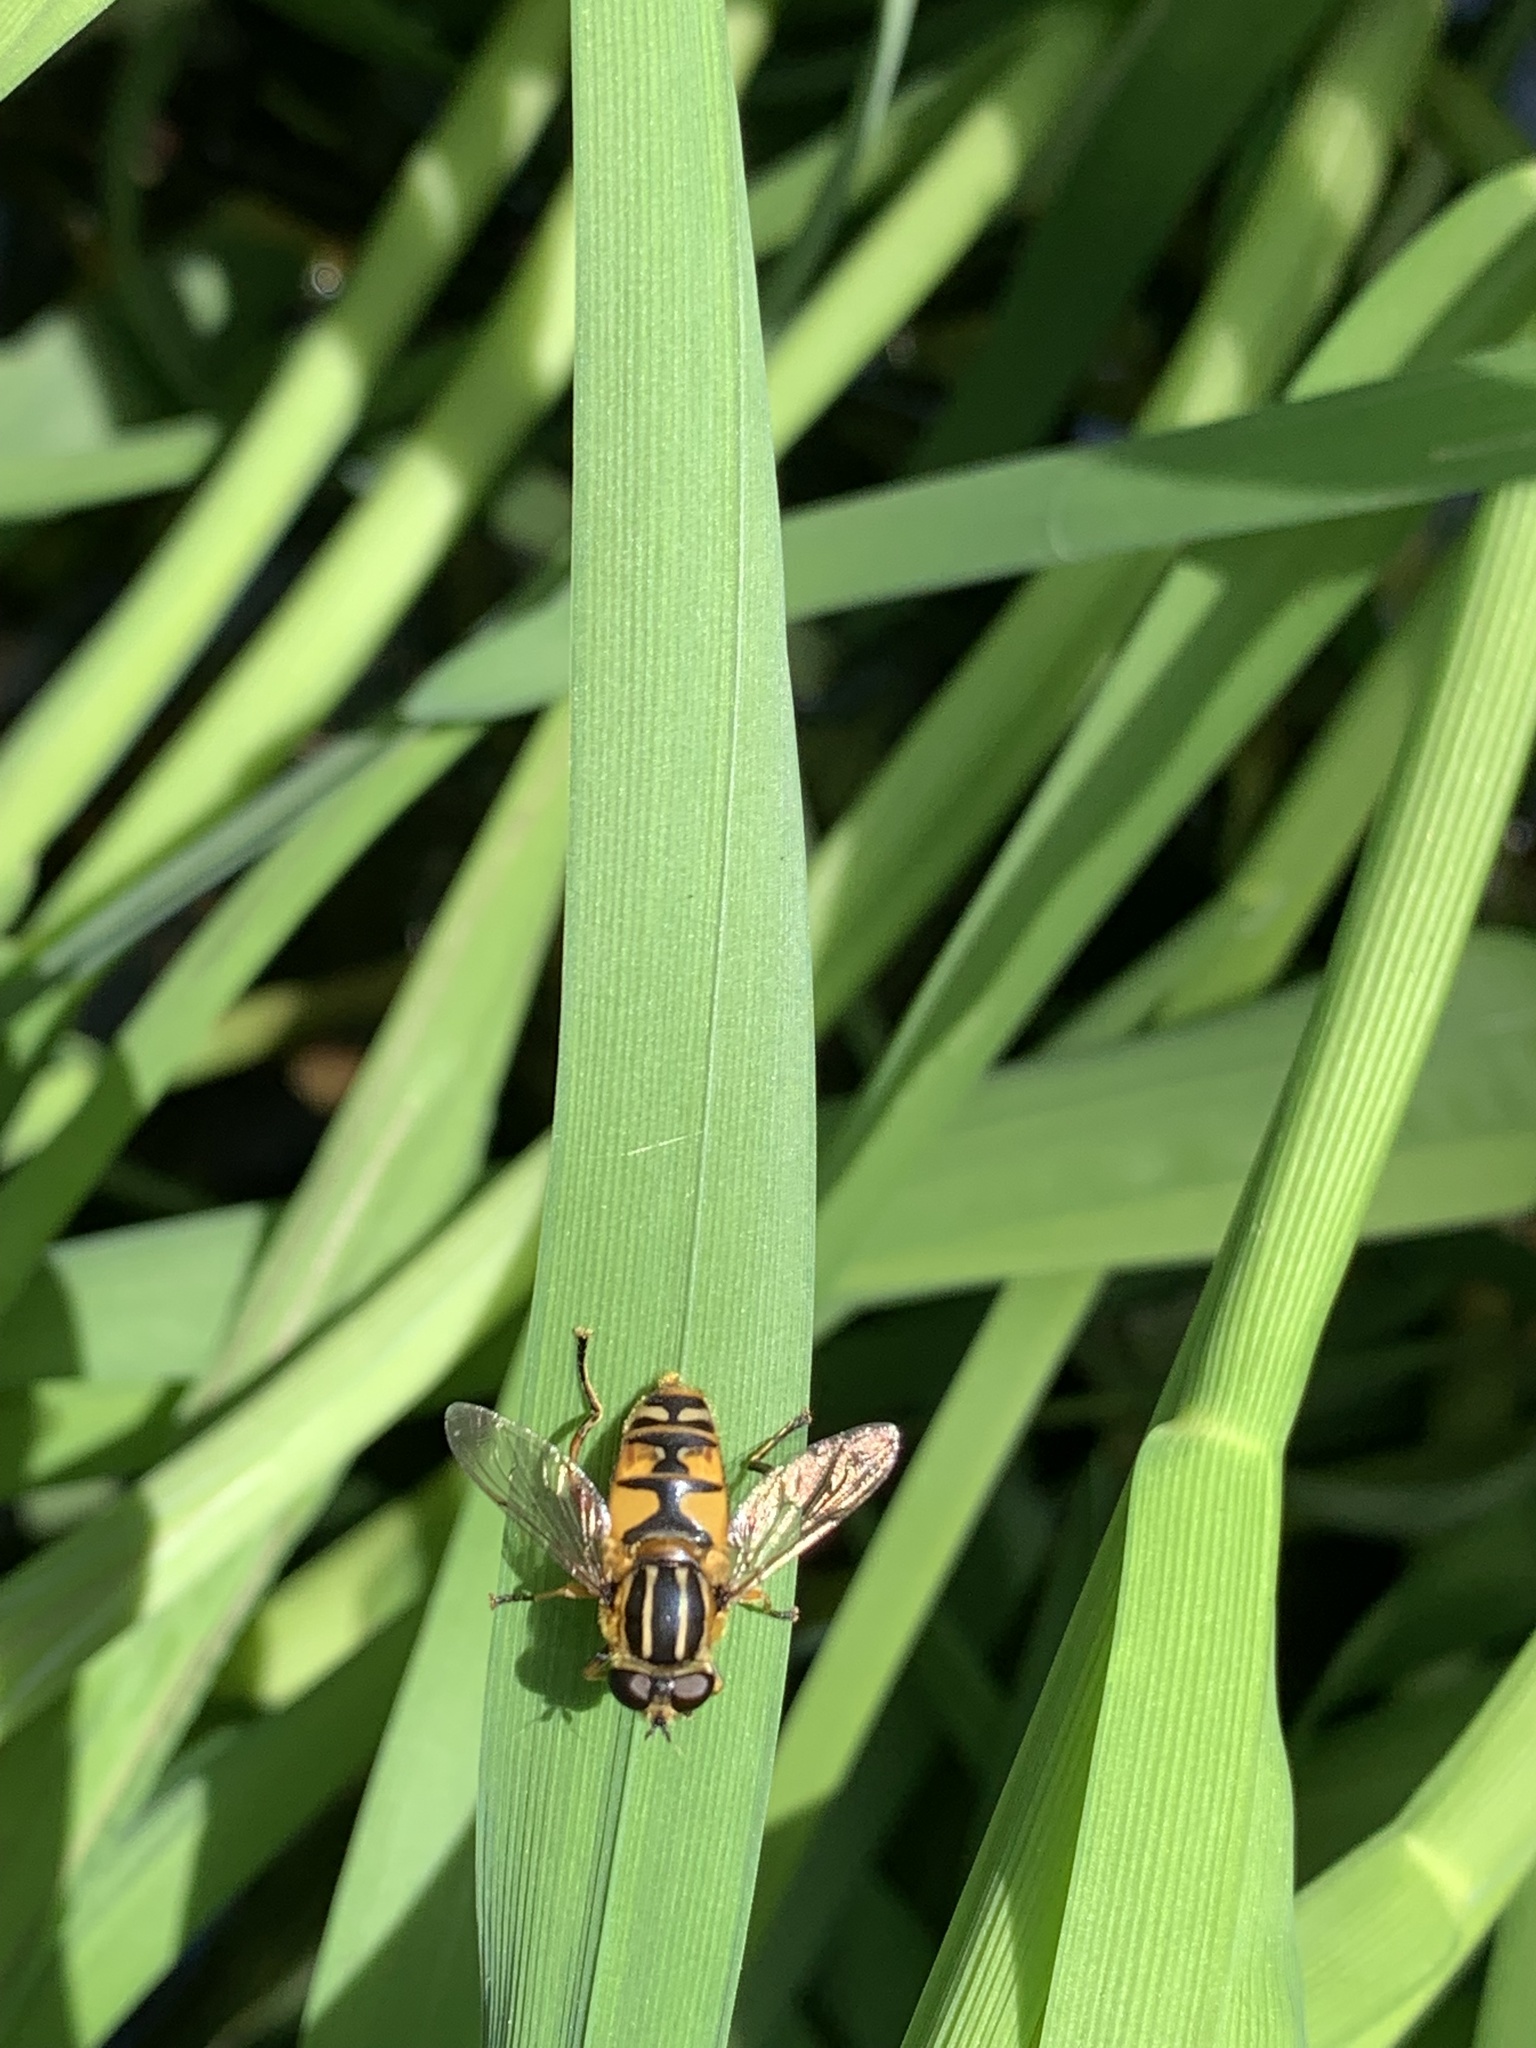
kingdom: Animalia
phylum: Arthropoda
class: Insecta
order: Diptera
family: Syrphidae
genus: Helophilus
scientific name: Helophilus pendulus
